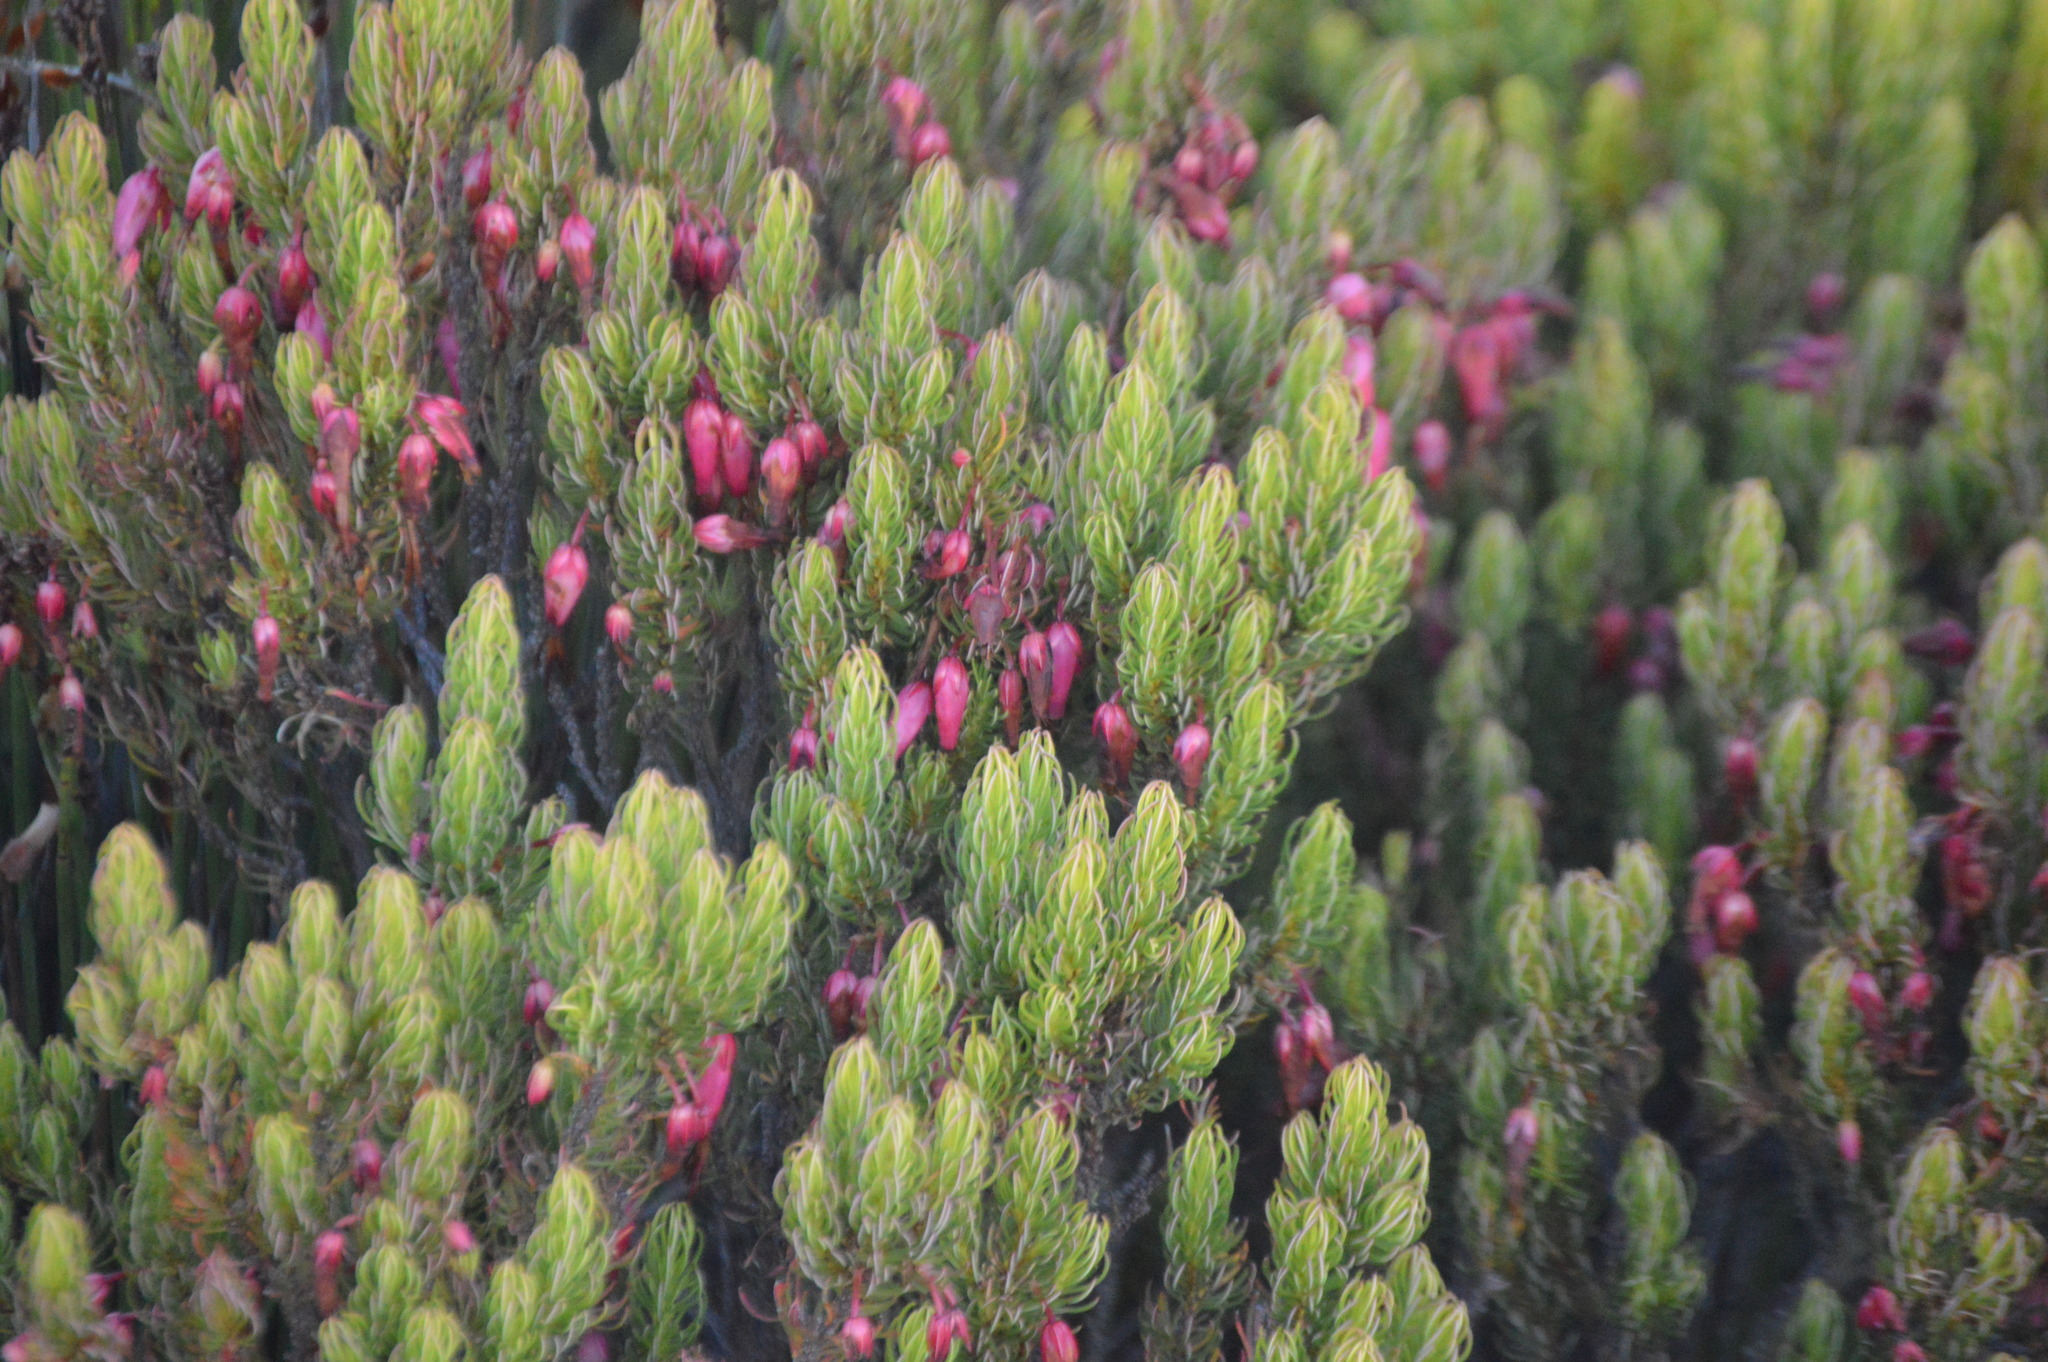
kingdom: Plantae
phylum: Tracheophyta
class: Magnoliopsida
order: Ericales
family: Ericaceae
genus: Erica
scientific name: Erica plukenetii
